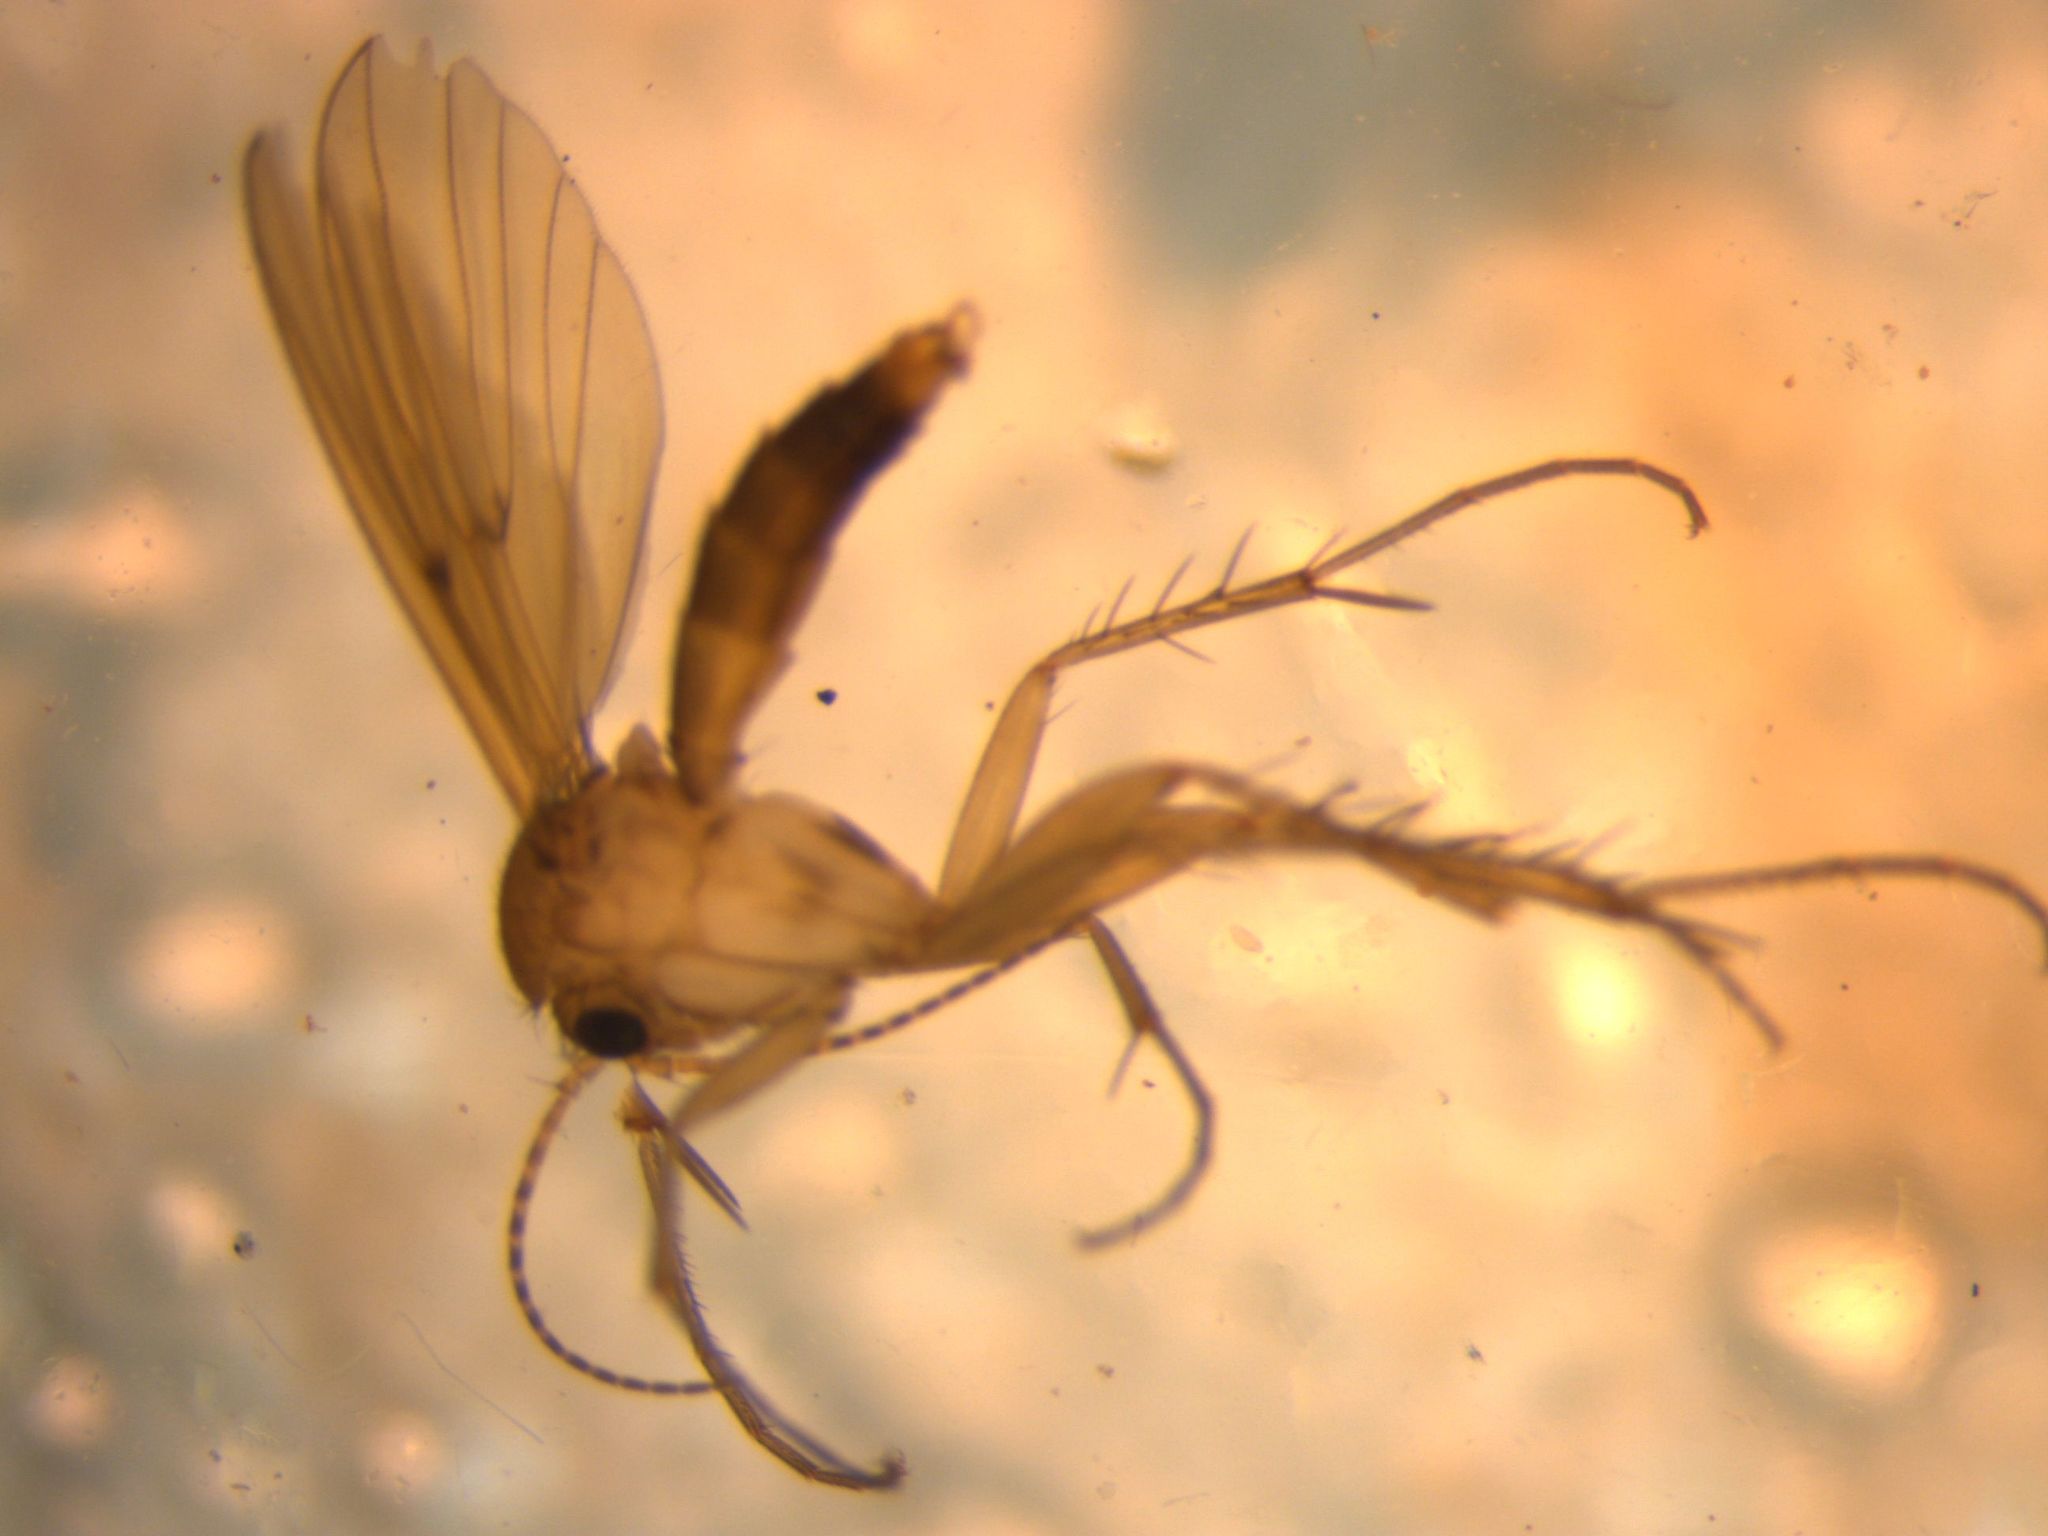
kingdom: Animalia
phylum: Arthropoda
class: Insecta
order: Diptera
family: Mycetophilidae
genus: Mycetophila
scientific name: Mycetophila fagi
